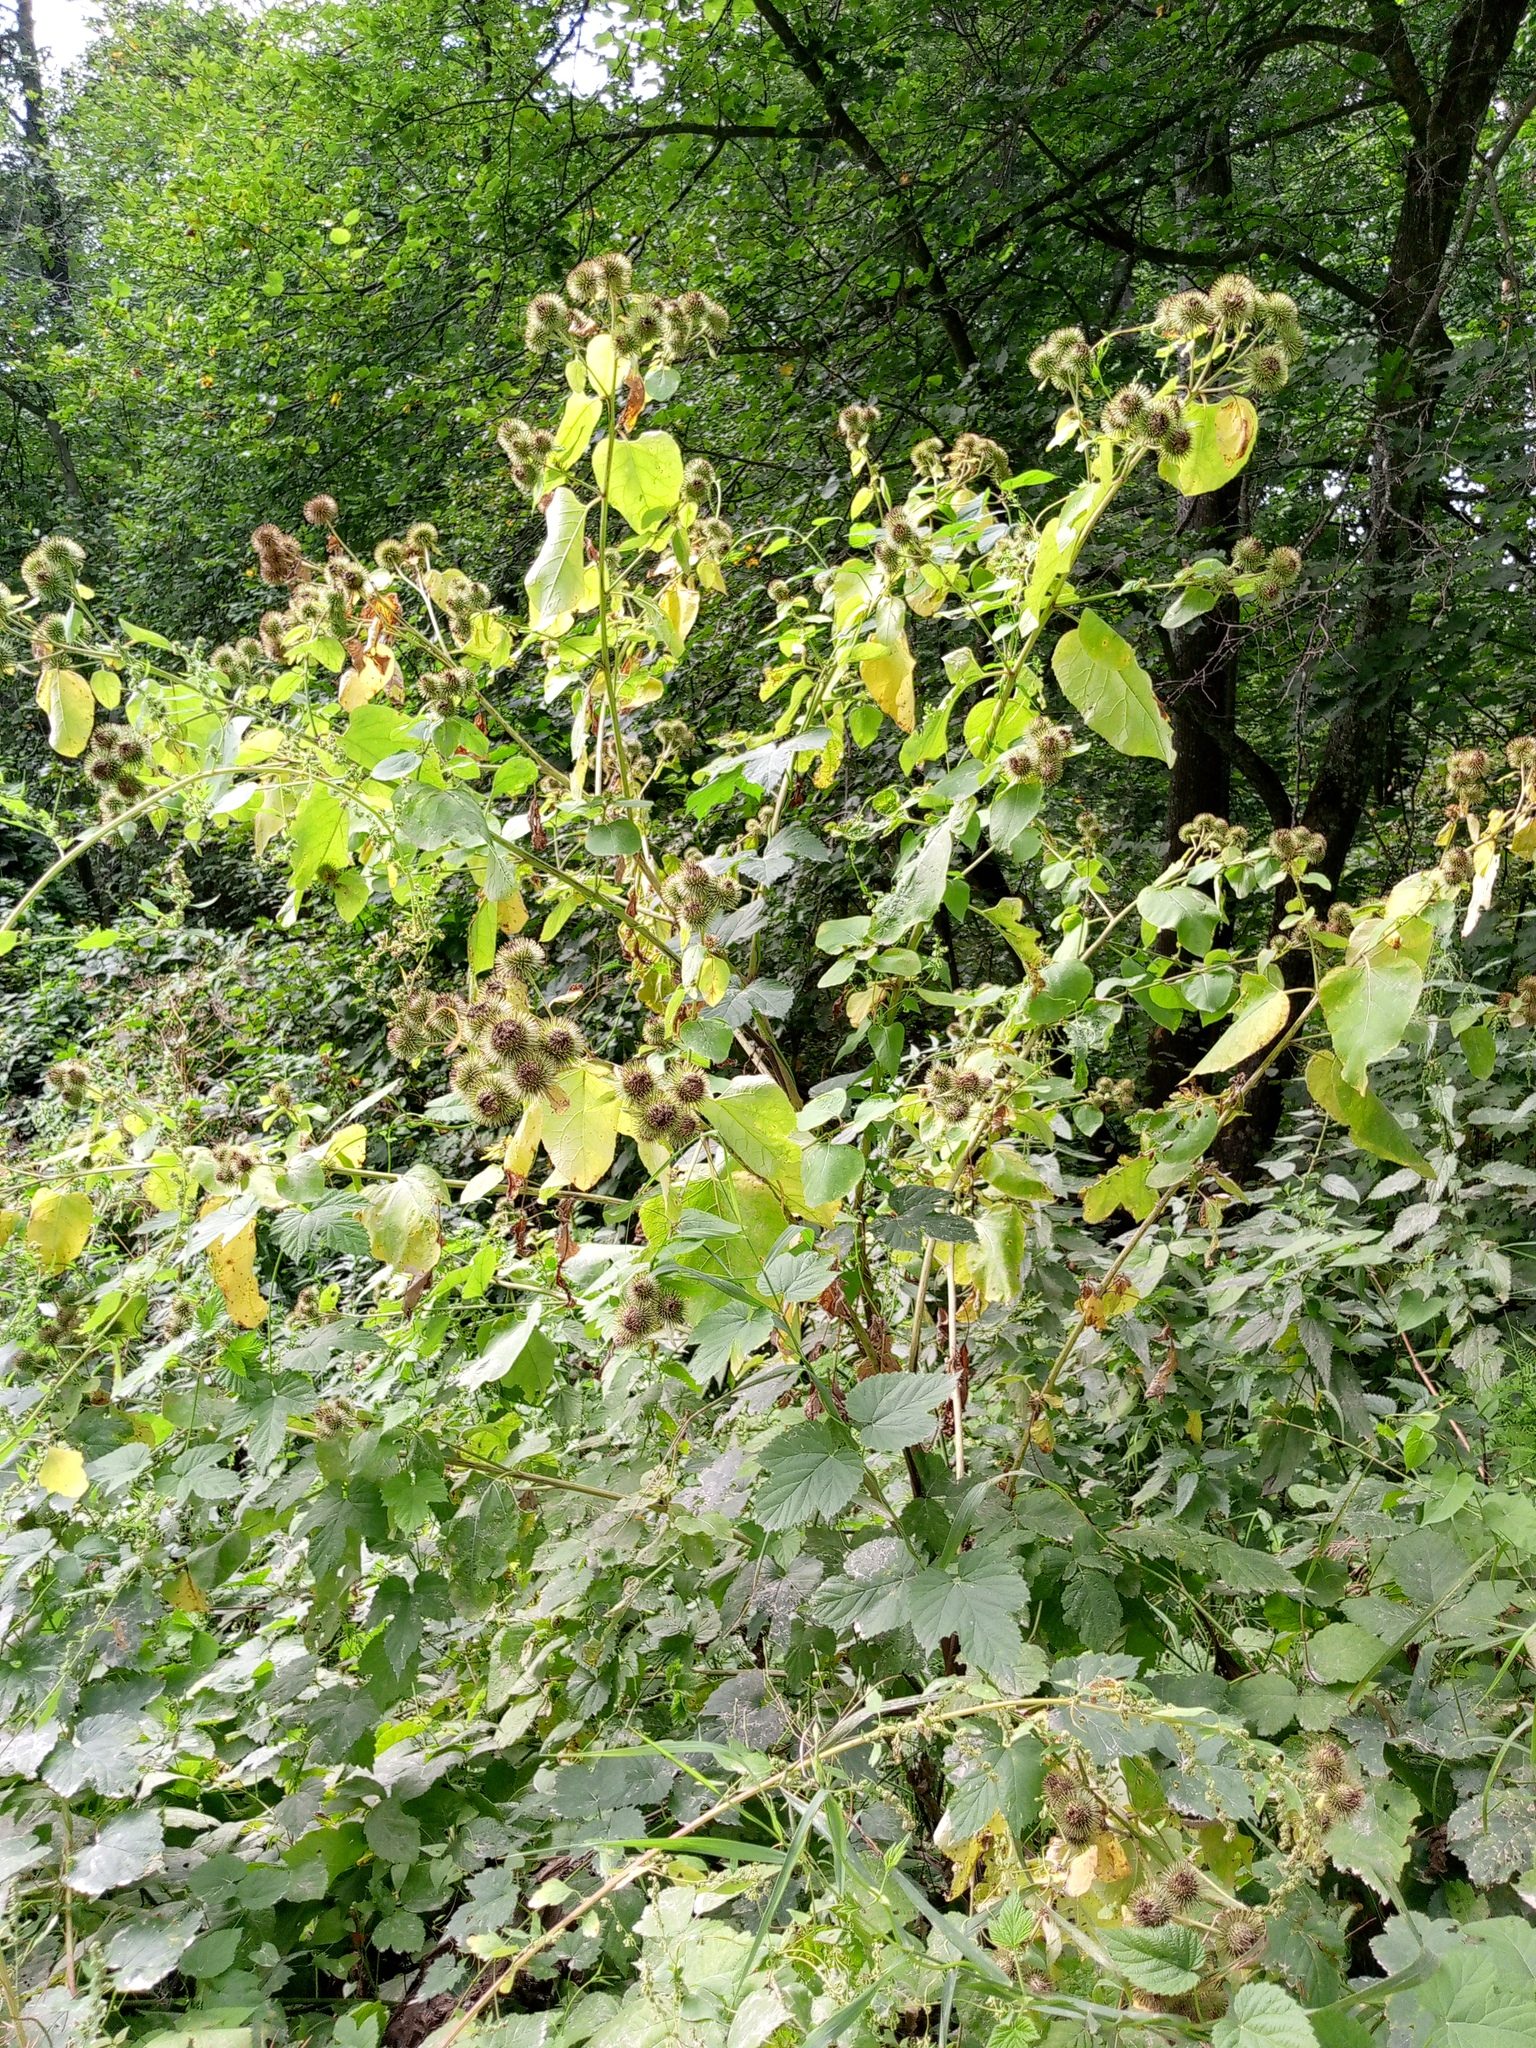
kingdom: Plantae
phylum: Tracheophyta
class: Magnoliopsida
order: Asterales
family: Asteraceae
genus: Arctium
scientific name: Arctium lappa
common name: Greater burdock
